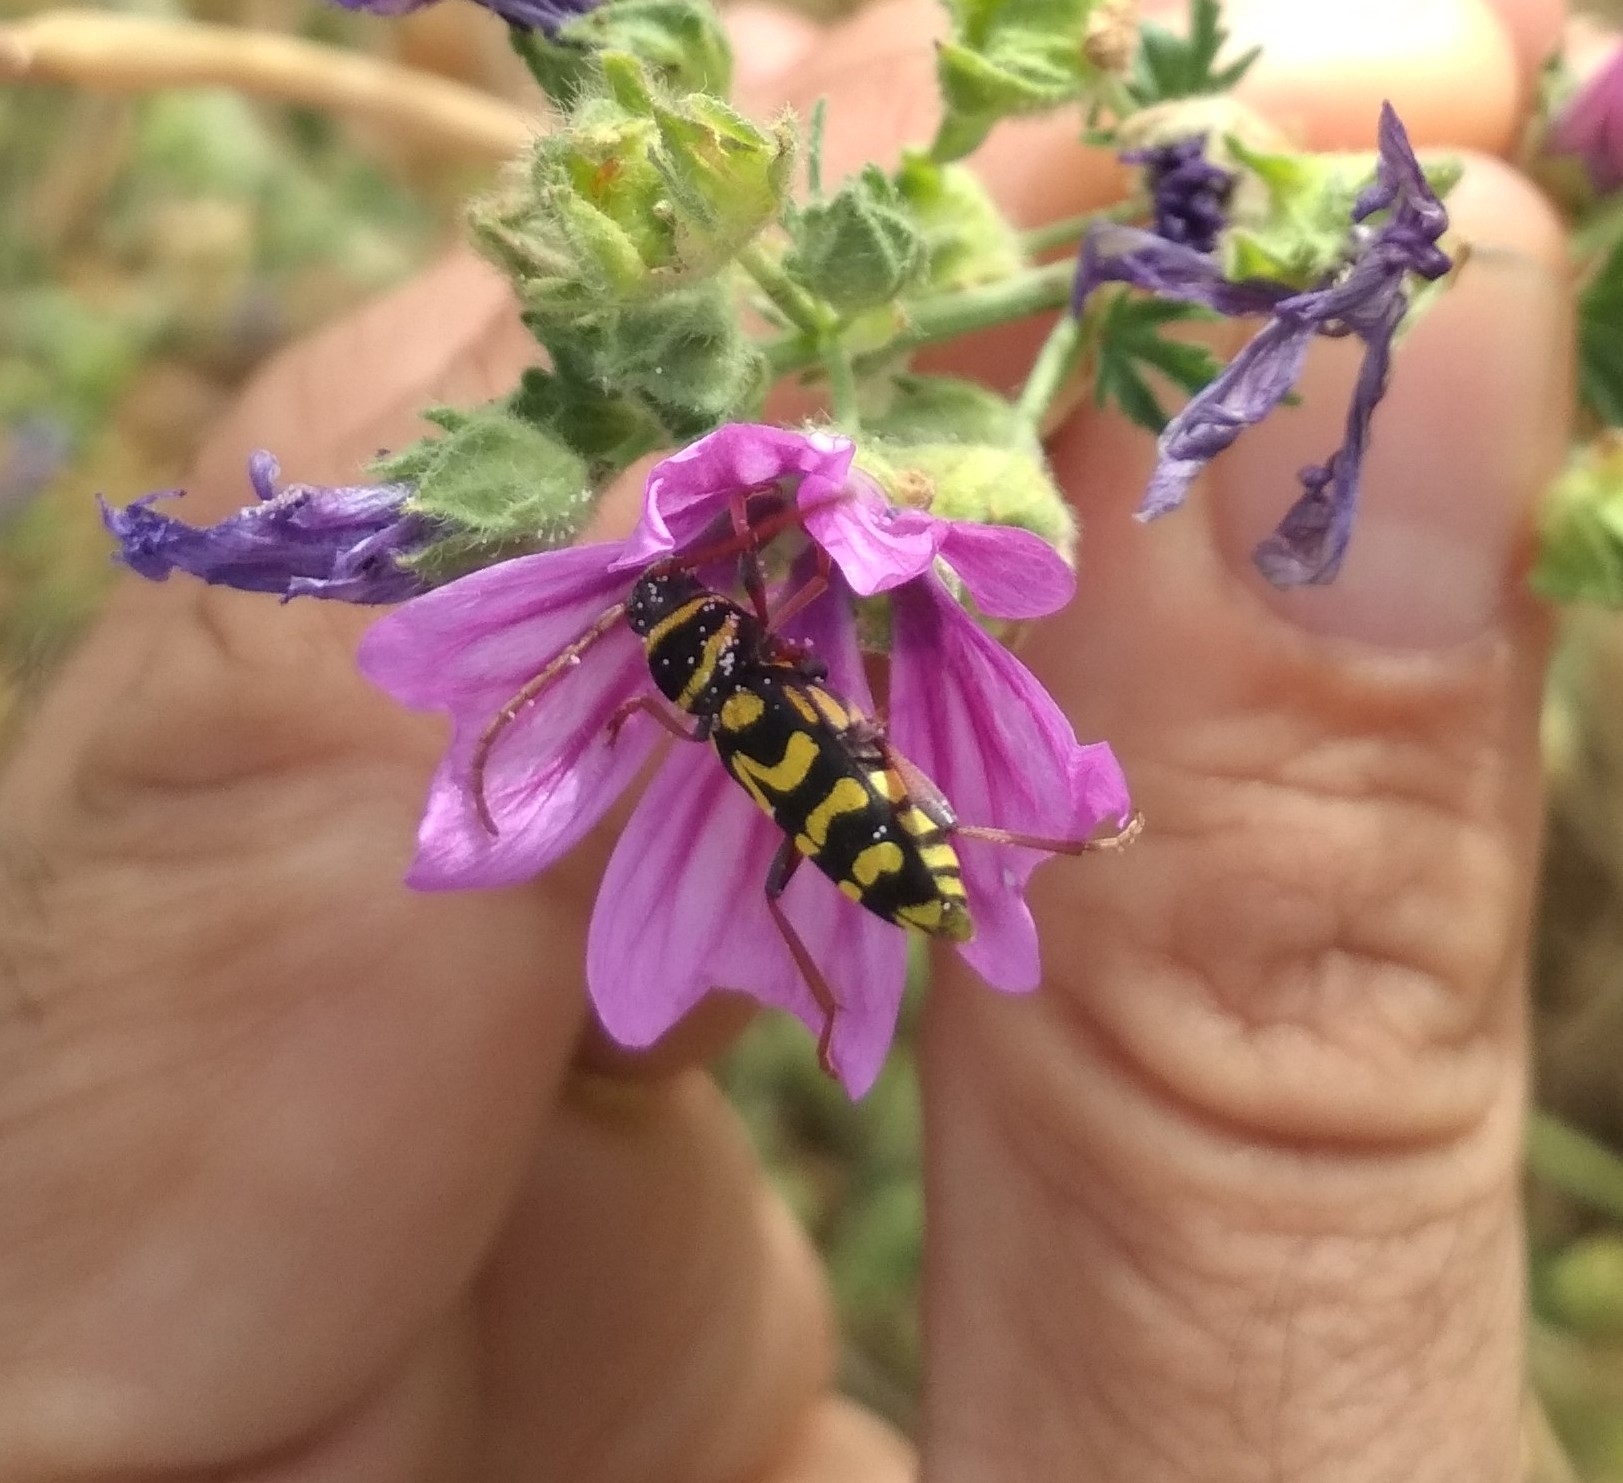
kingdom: Animalia
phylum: Arthropoda
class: Insecta
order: Coleoptera
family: Cerambycidae
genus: Neoplagionotus
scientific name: Neoplagionotus scalaris
